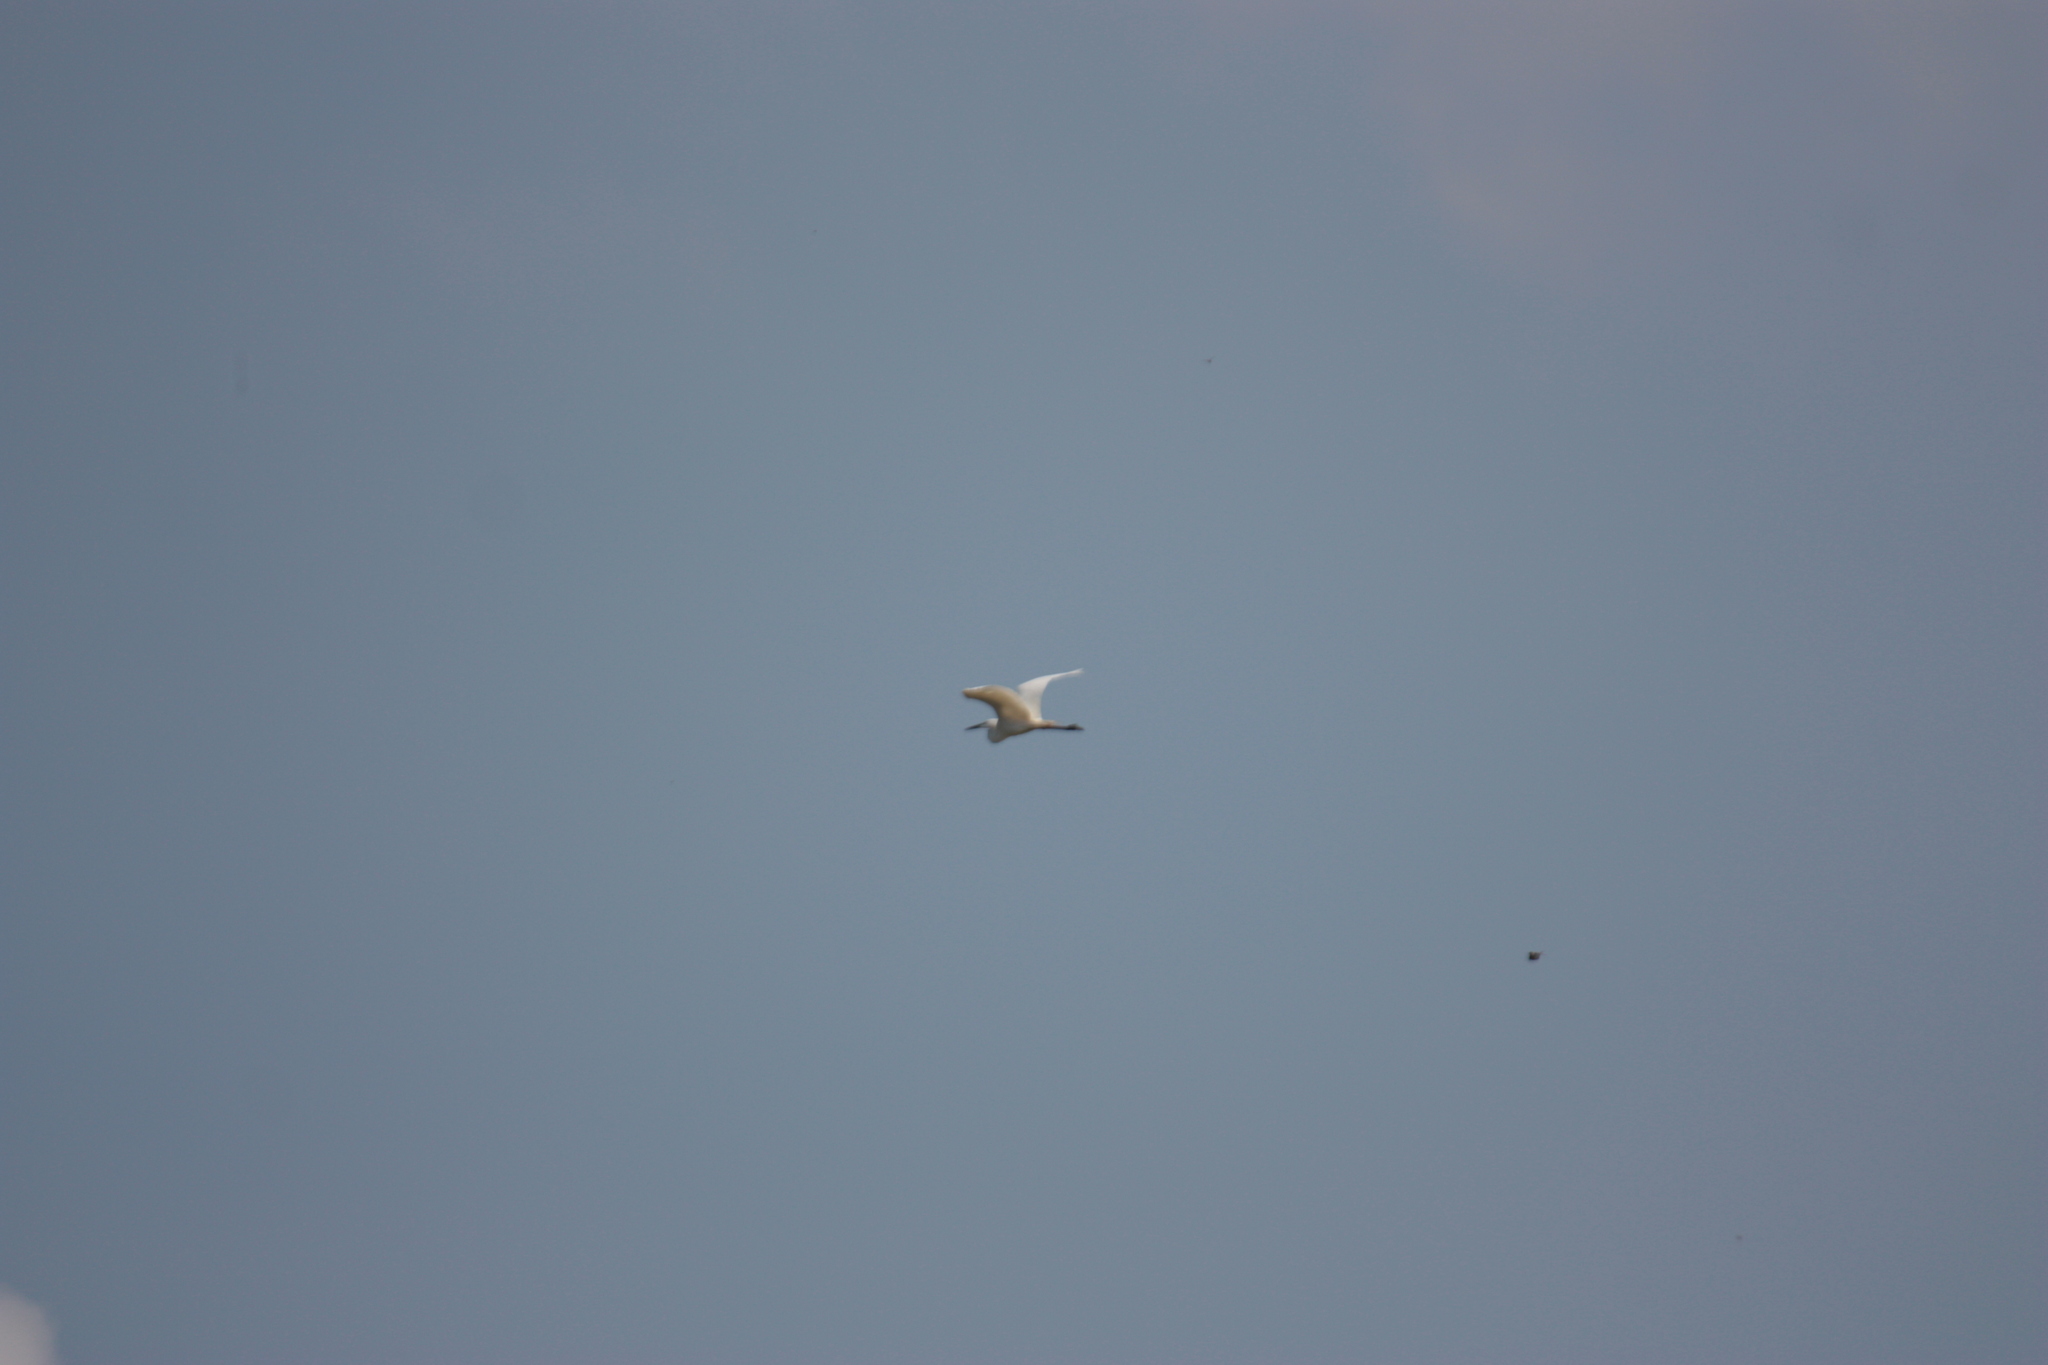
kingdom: Animalia
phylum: Chordata
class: Aves
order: Pelecaniformes
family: Ardeidae
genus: Egretta
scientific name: Egretta garzetta
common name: Little egret
